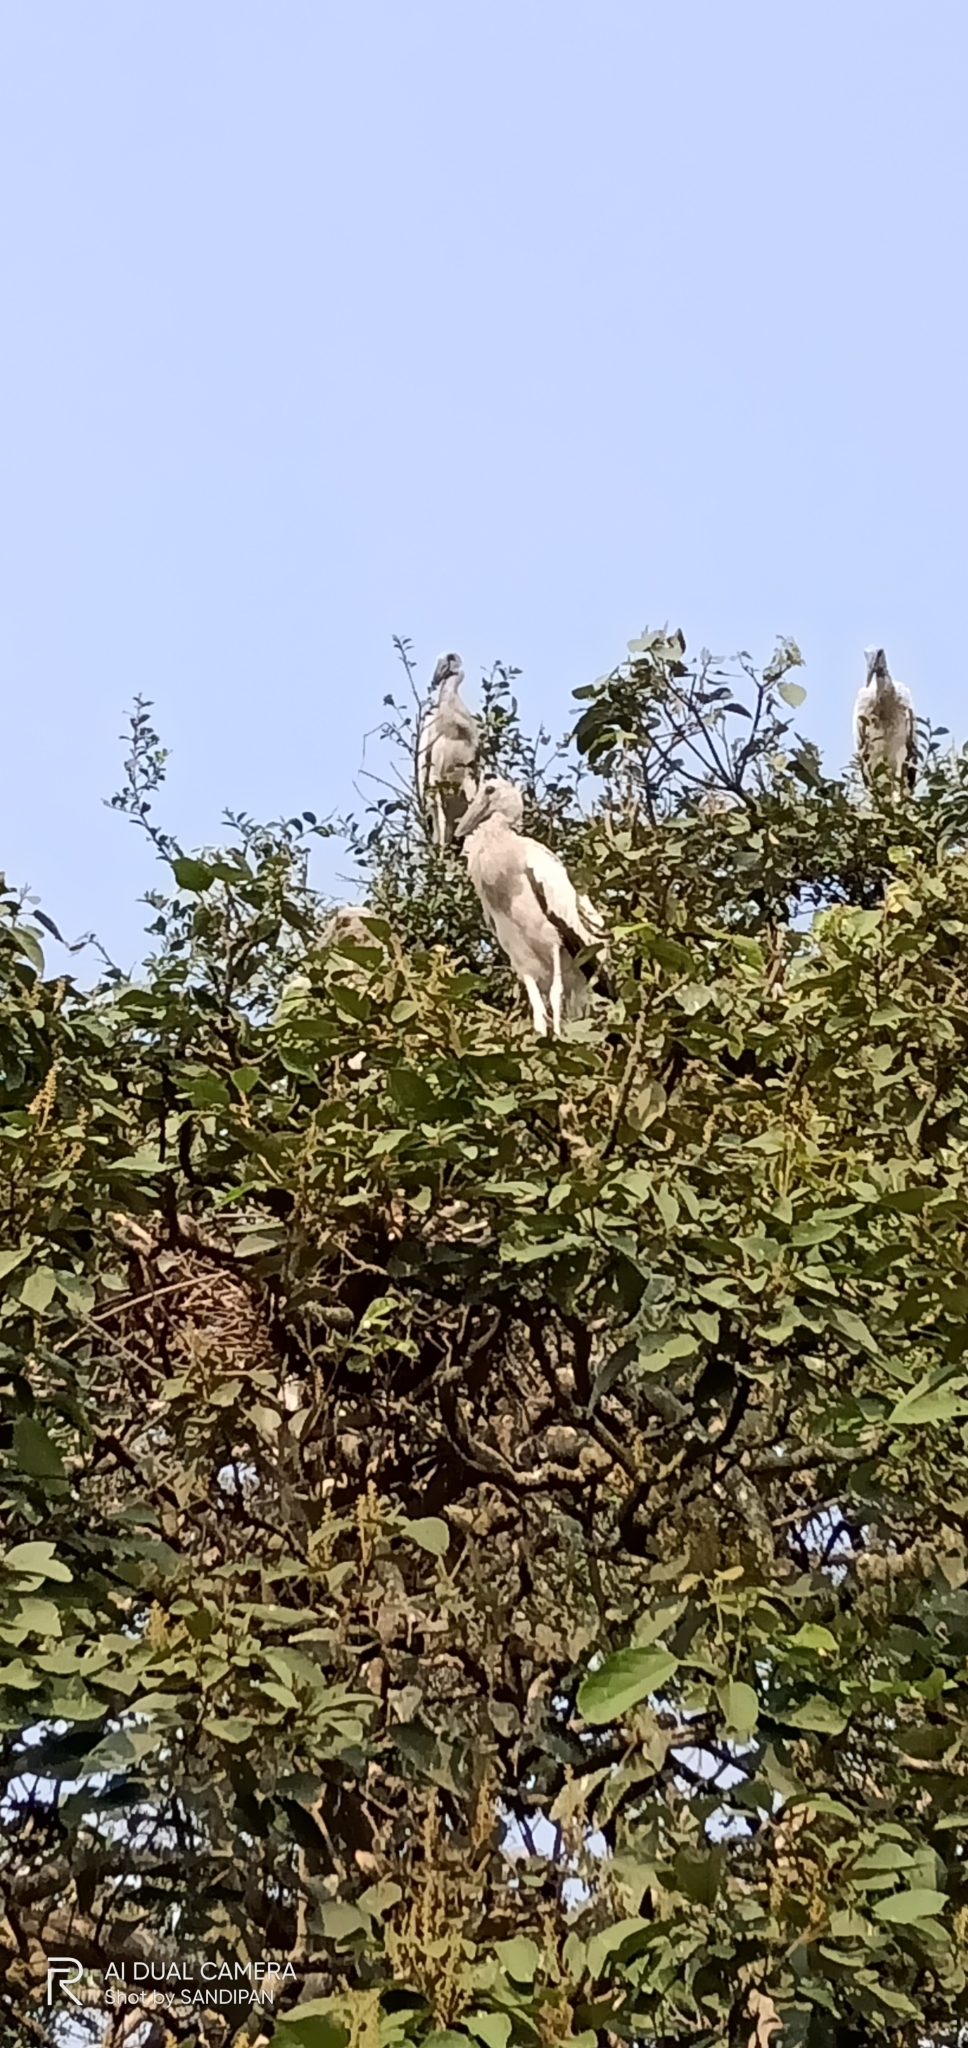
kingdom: Animalia
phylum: Chordata
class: Aves
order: Ciconiiformes
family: Ciconiidae
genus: Anastomus
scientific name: Anastomus oscitans
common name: Asian openbill
